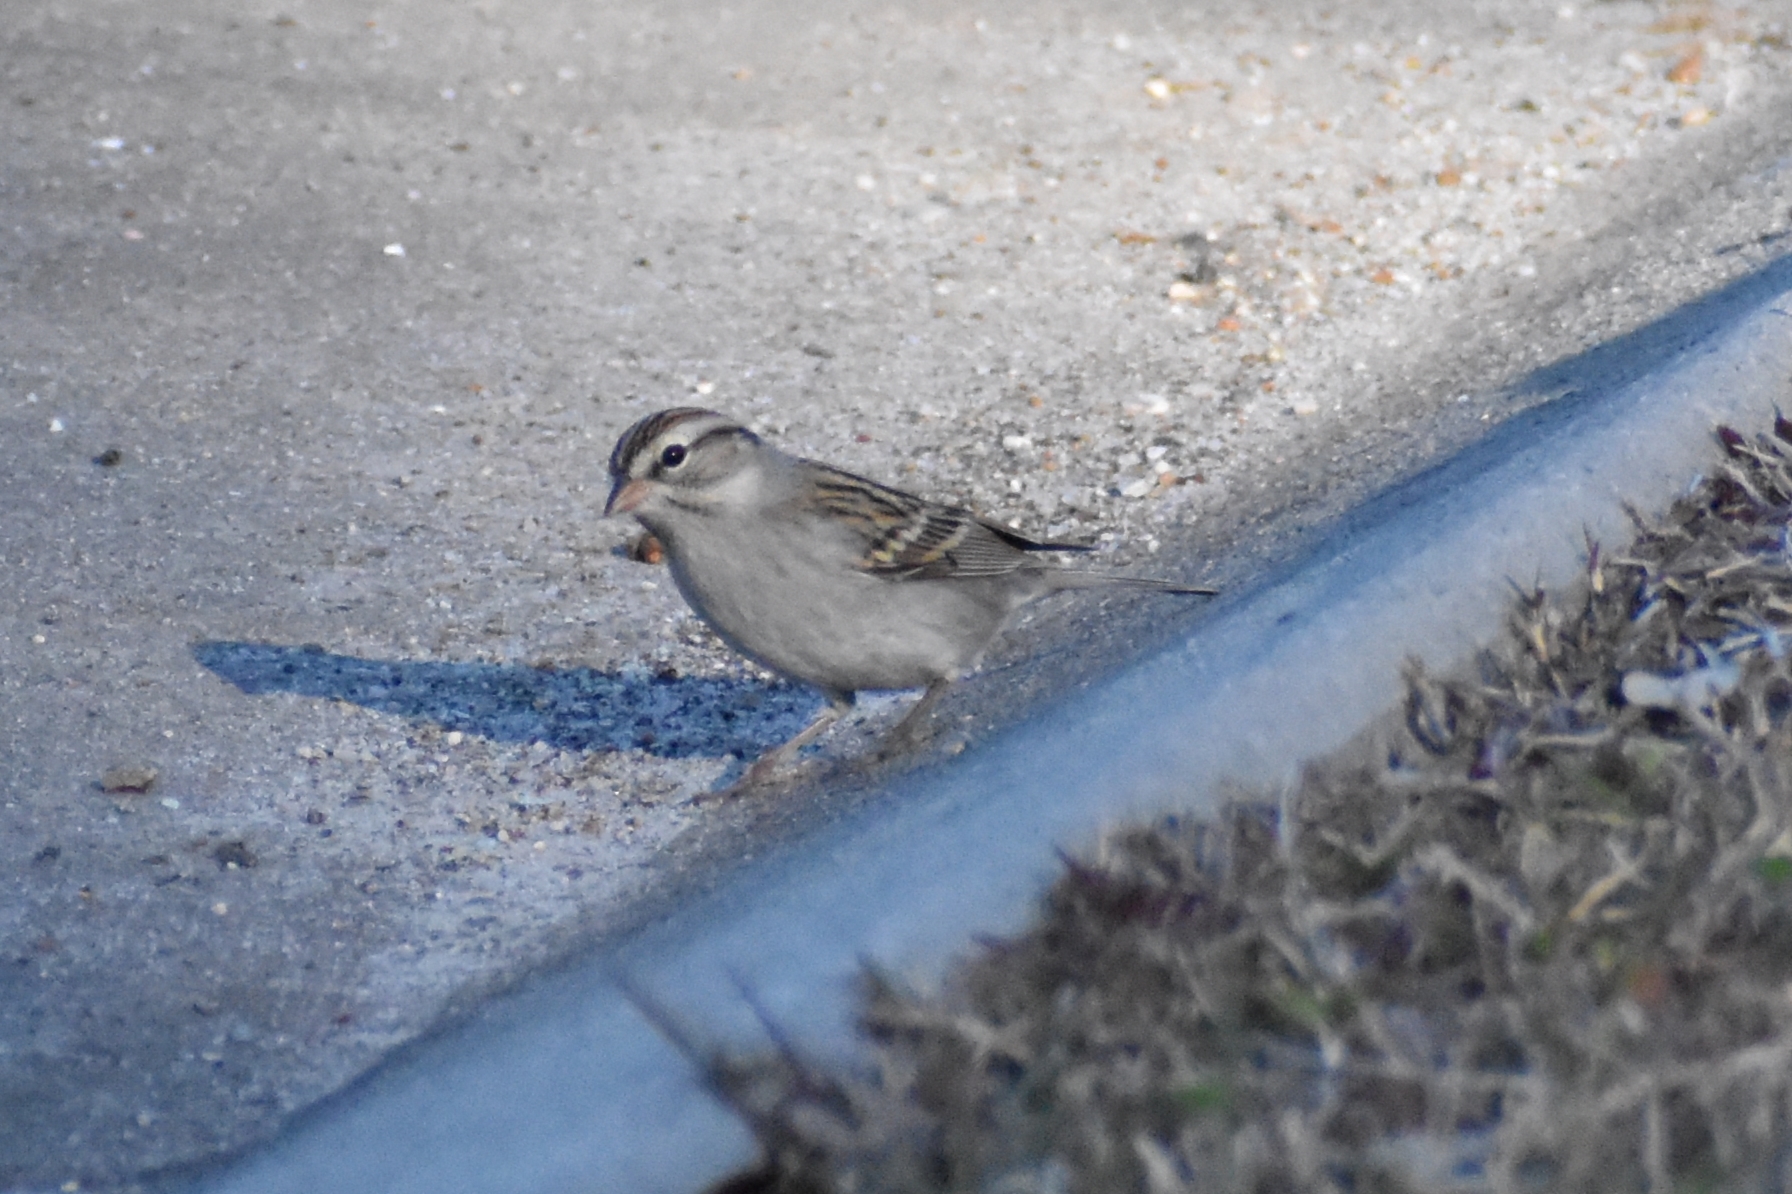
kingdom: Animalia
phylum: Chordata
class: Aves
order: Passeriformes
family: Passerellidae
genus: Spizella
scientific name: Spizella passerina
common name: Chipping sparrow
